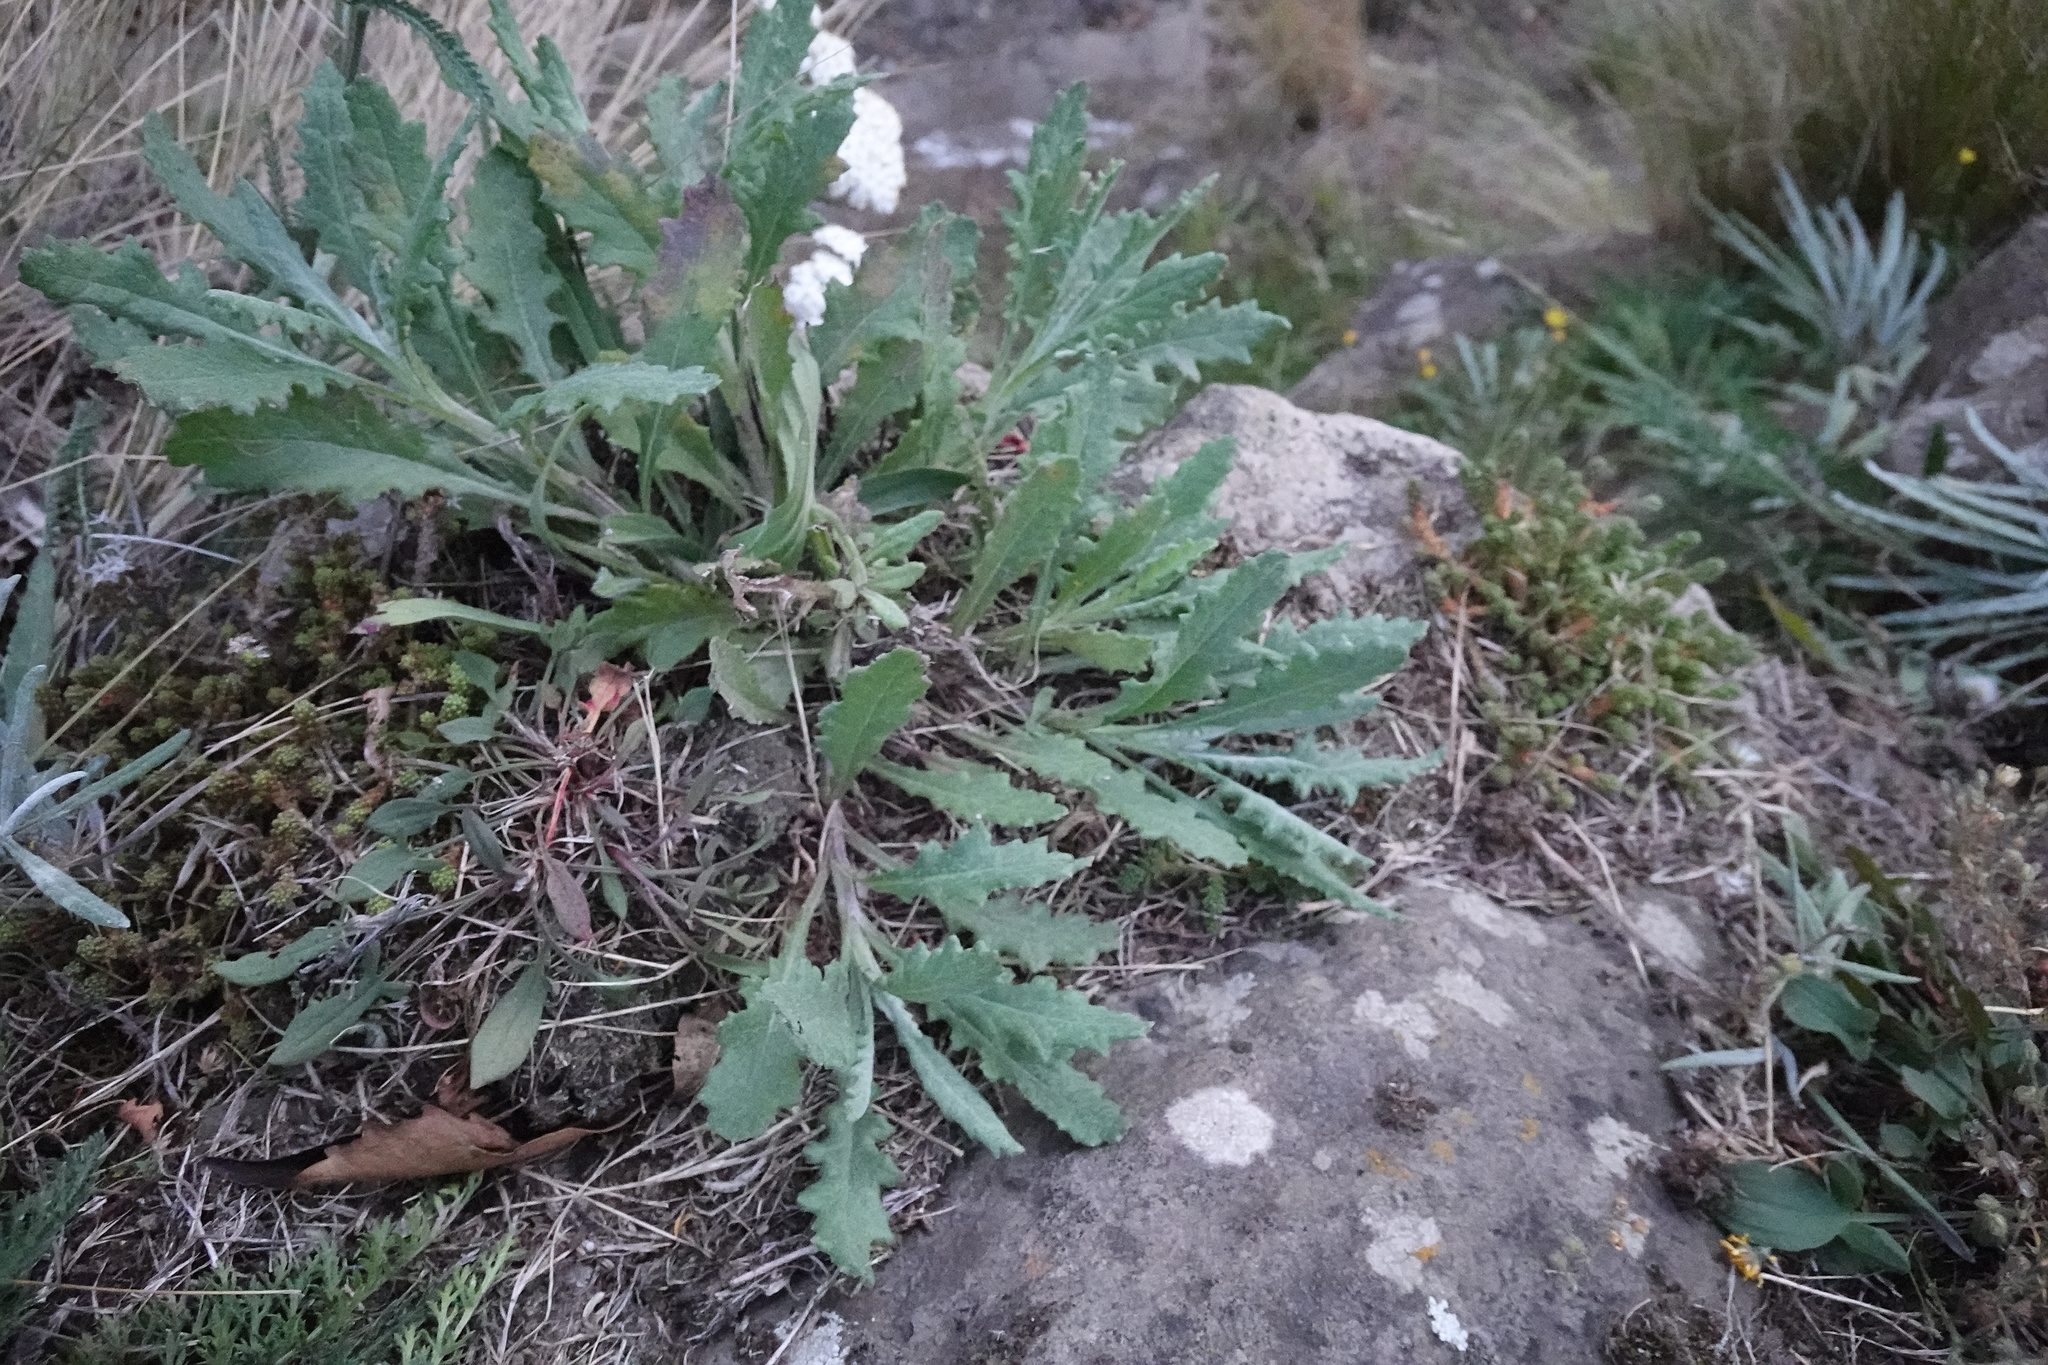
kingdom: Plantae
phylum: Tracheophyta
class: Magnoliopsida
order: Asterales
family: Asteraceae
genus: Senecio
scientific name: Senecio glomeratus
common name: Cutleaf burnweed
